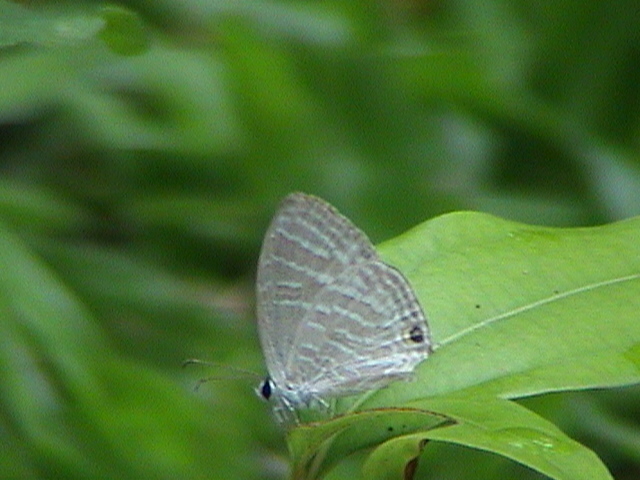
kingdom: Animalia
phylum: Arthropoda
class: Insecta
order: Lepidoptera
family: Lycaenidae
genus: Jamides
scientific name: Jamides celeno
